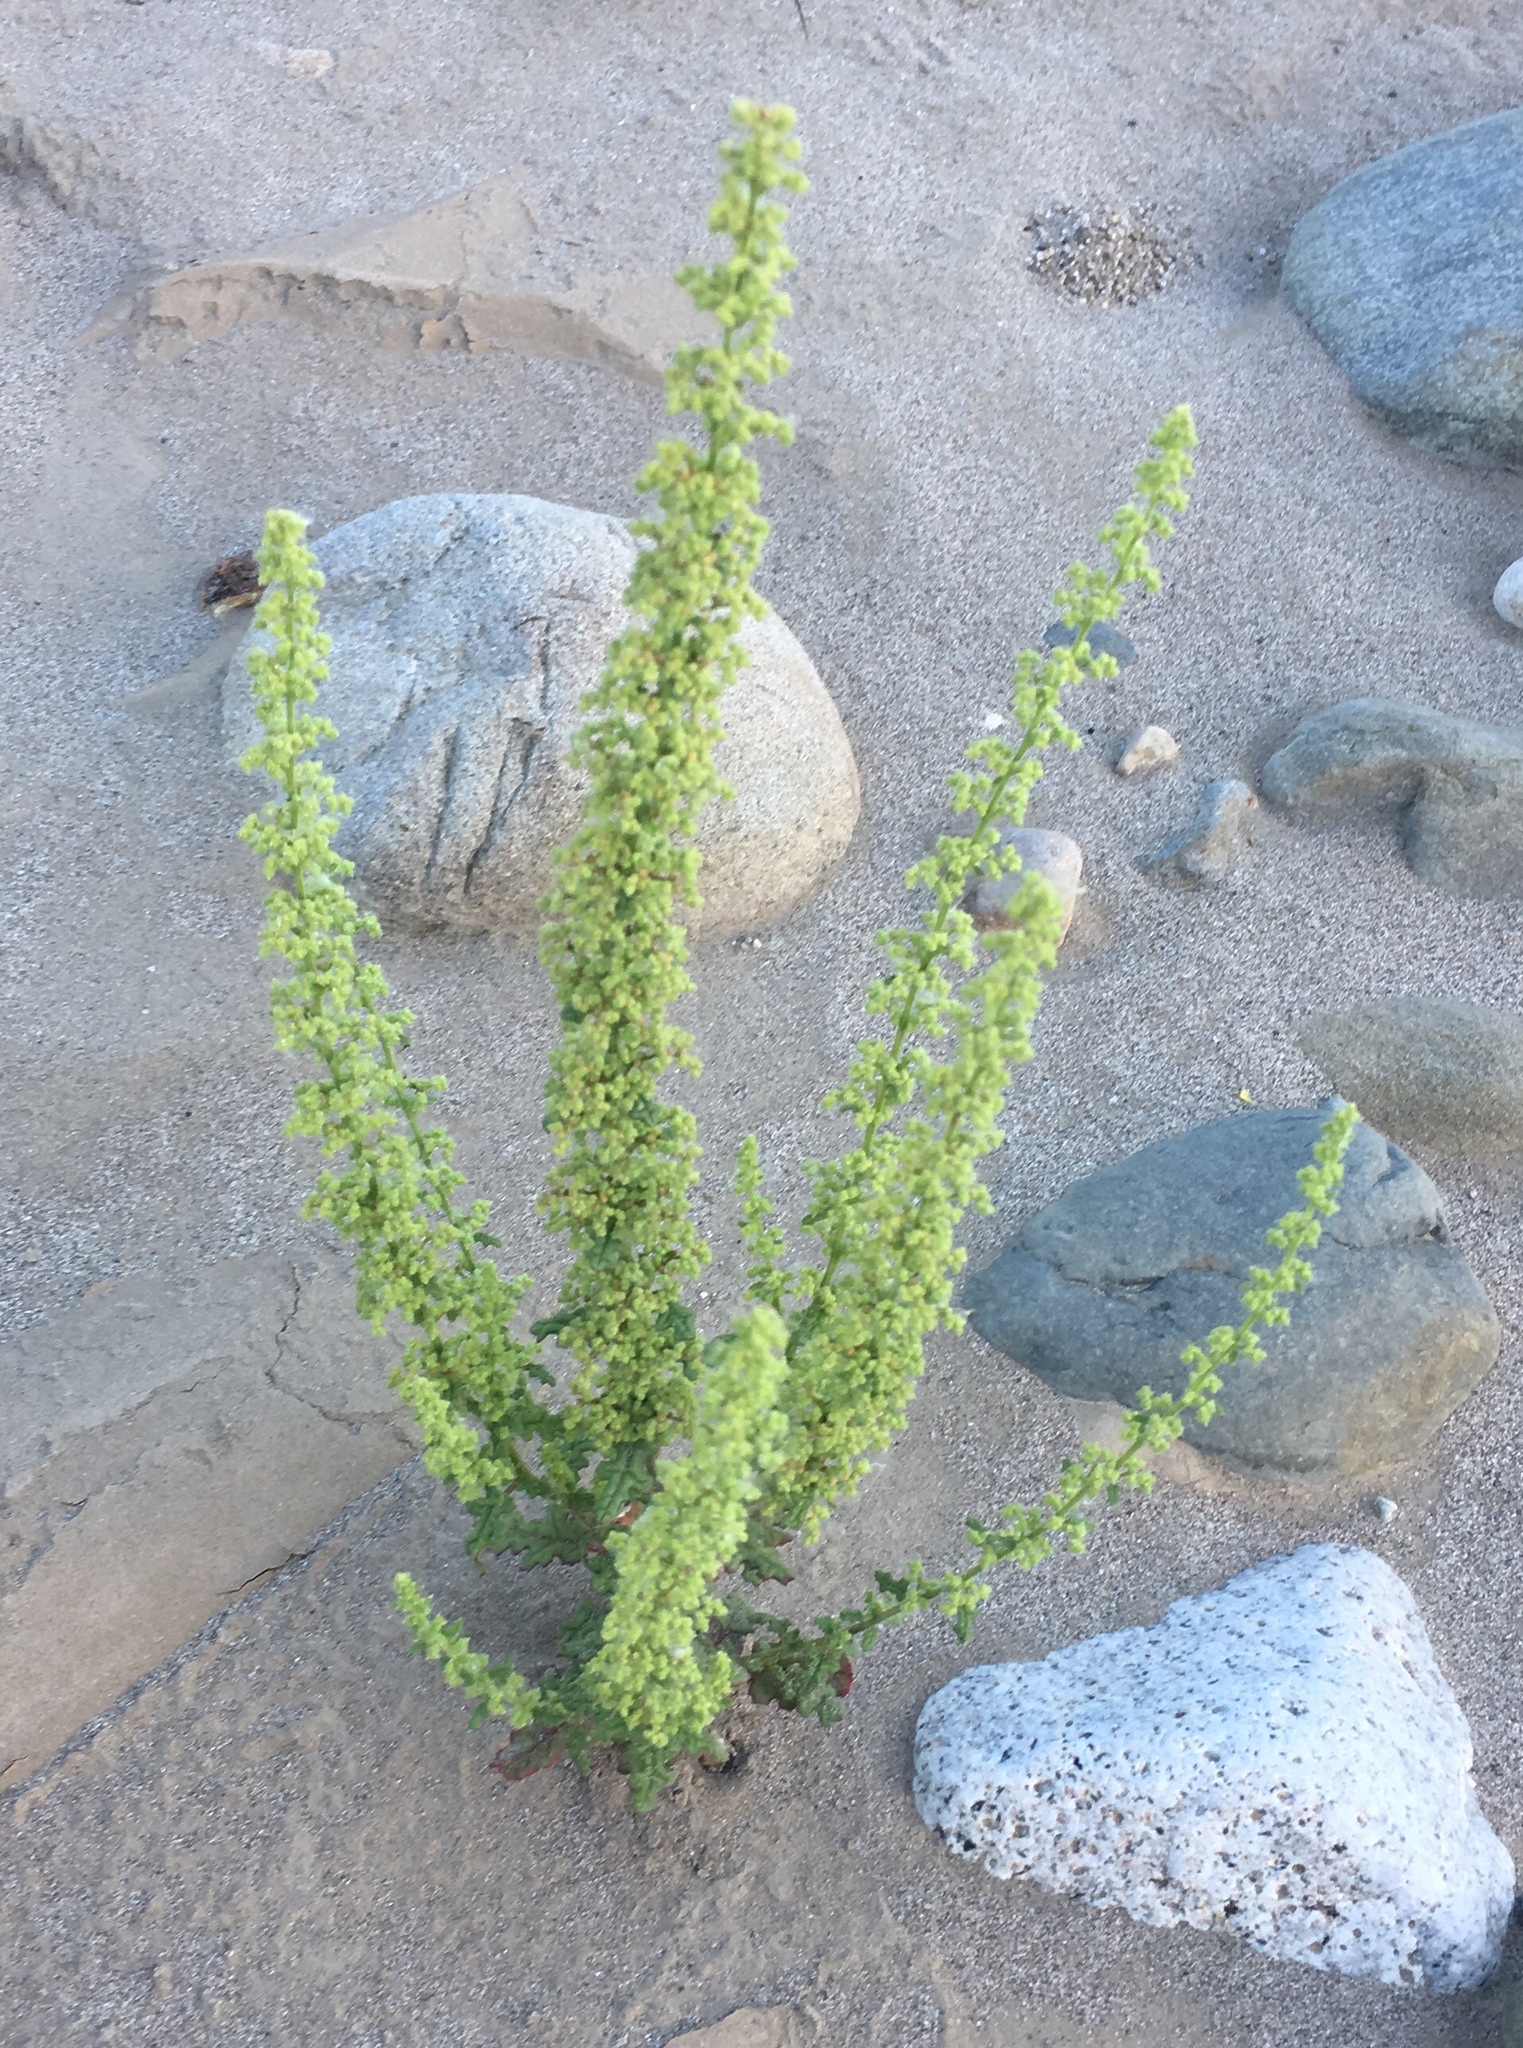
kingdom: Plantae
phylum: Tracheophyta
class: Magnoliopsida
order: Caryophyllales
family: Amaranthaceae
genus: Dysphania
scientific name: Dysphania botrys
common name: Feather-geranium
